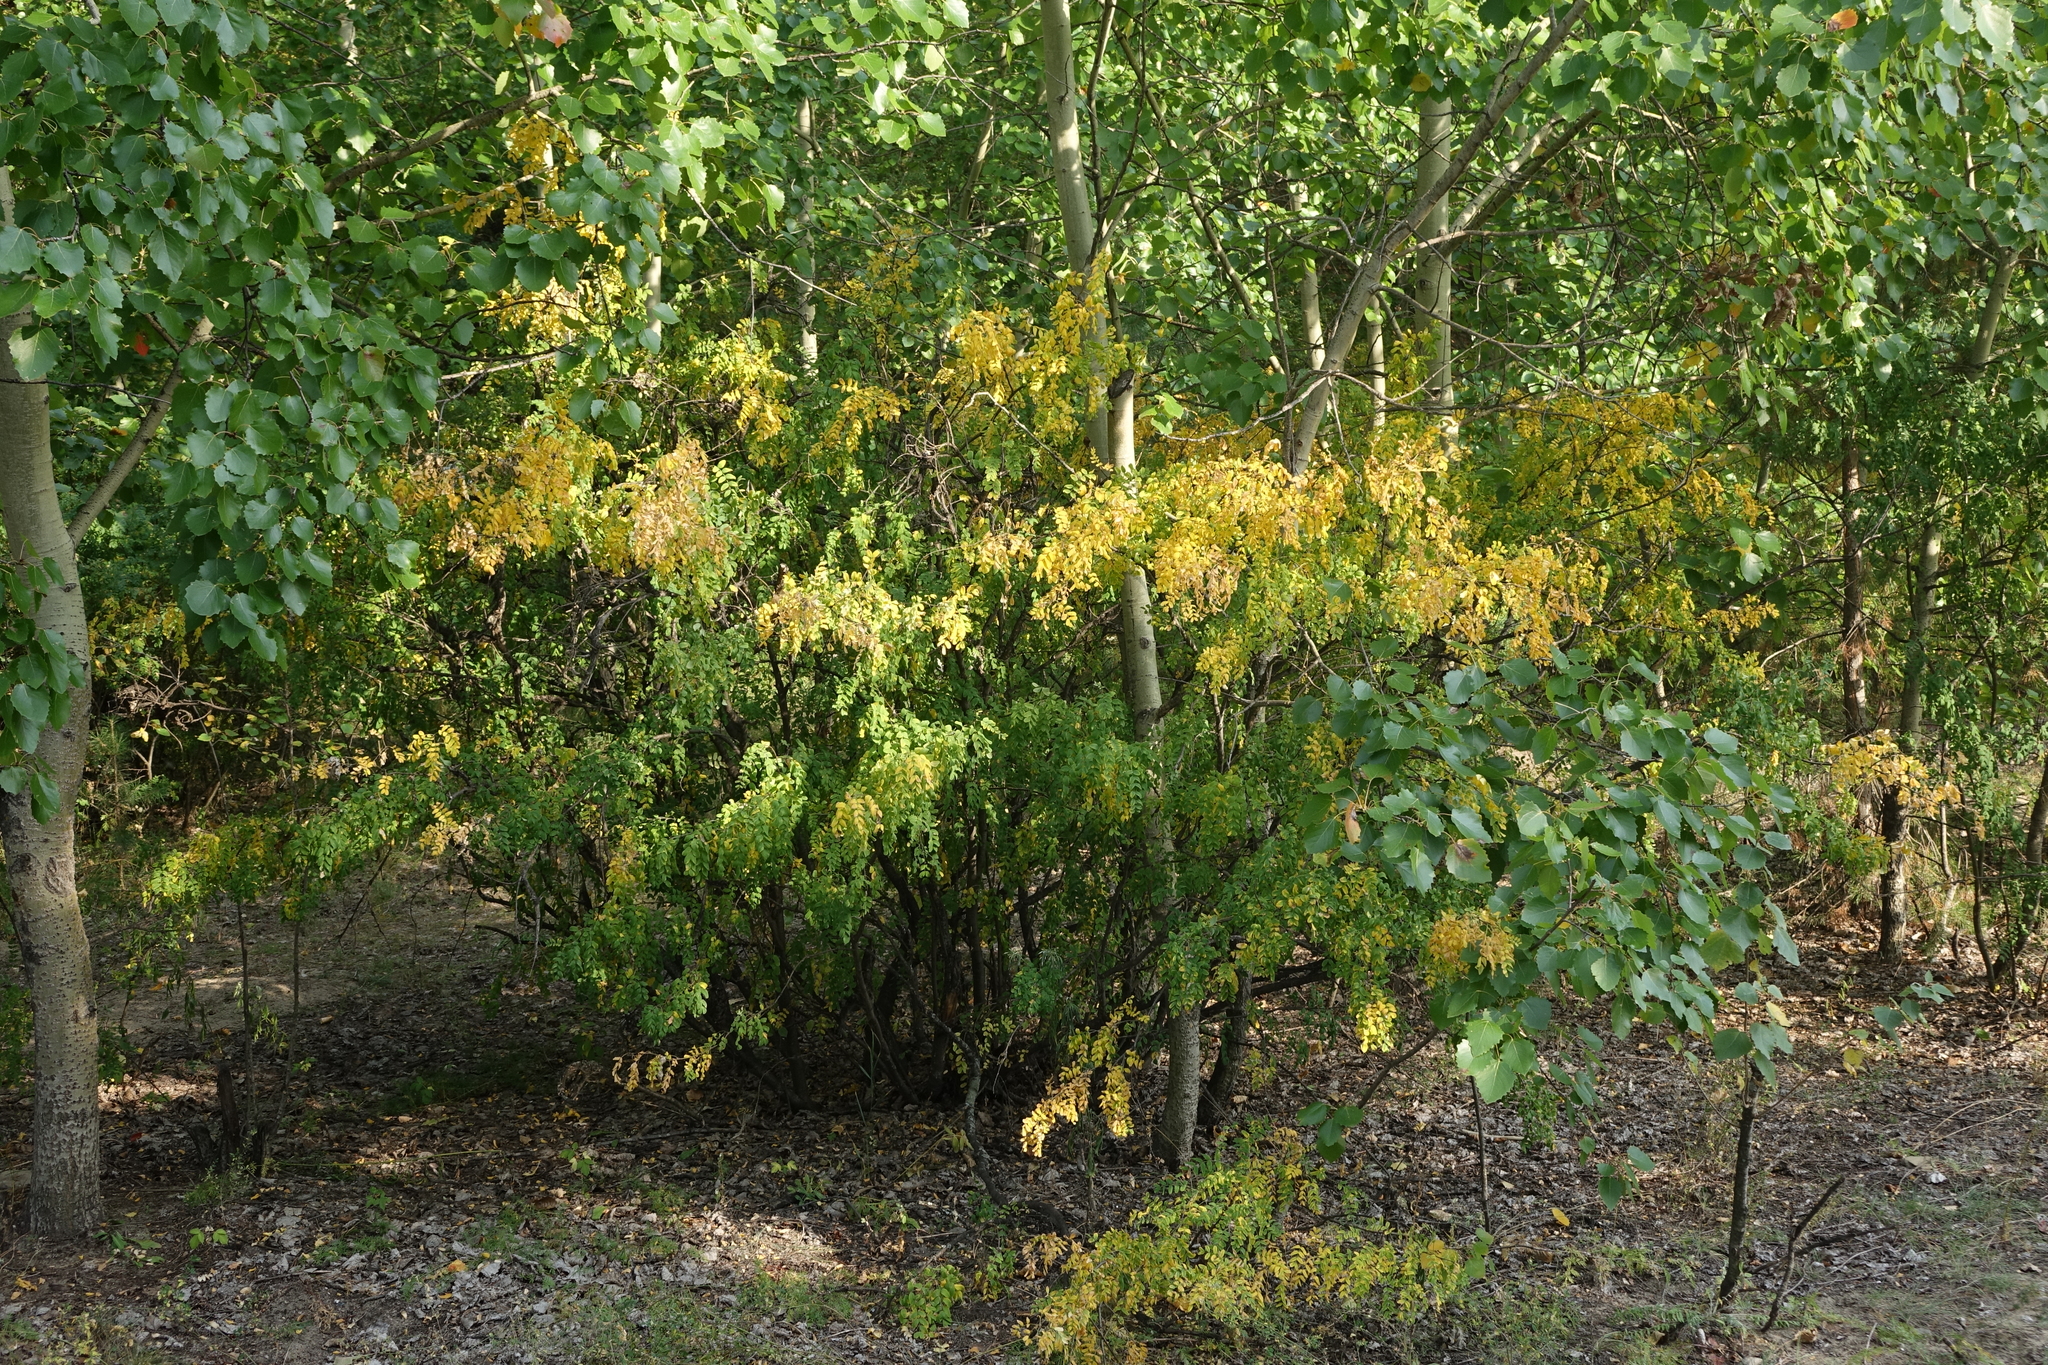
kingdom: Plantae
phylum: Tracheophyta
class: Magnoliopsida
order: Fabales
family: Fabaceae
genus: Caragana
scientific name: Caragana arborescens
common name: Siberian peashrub
